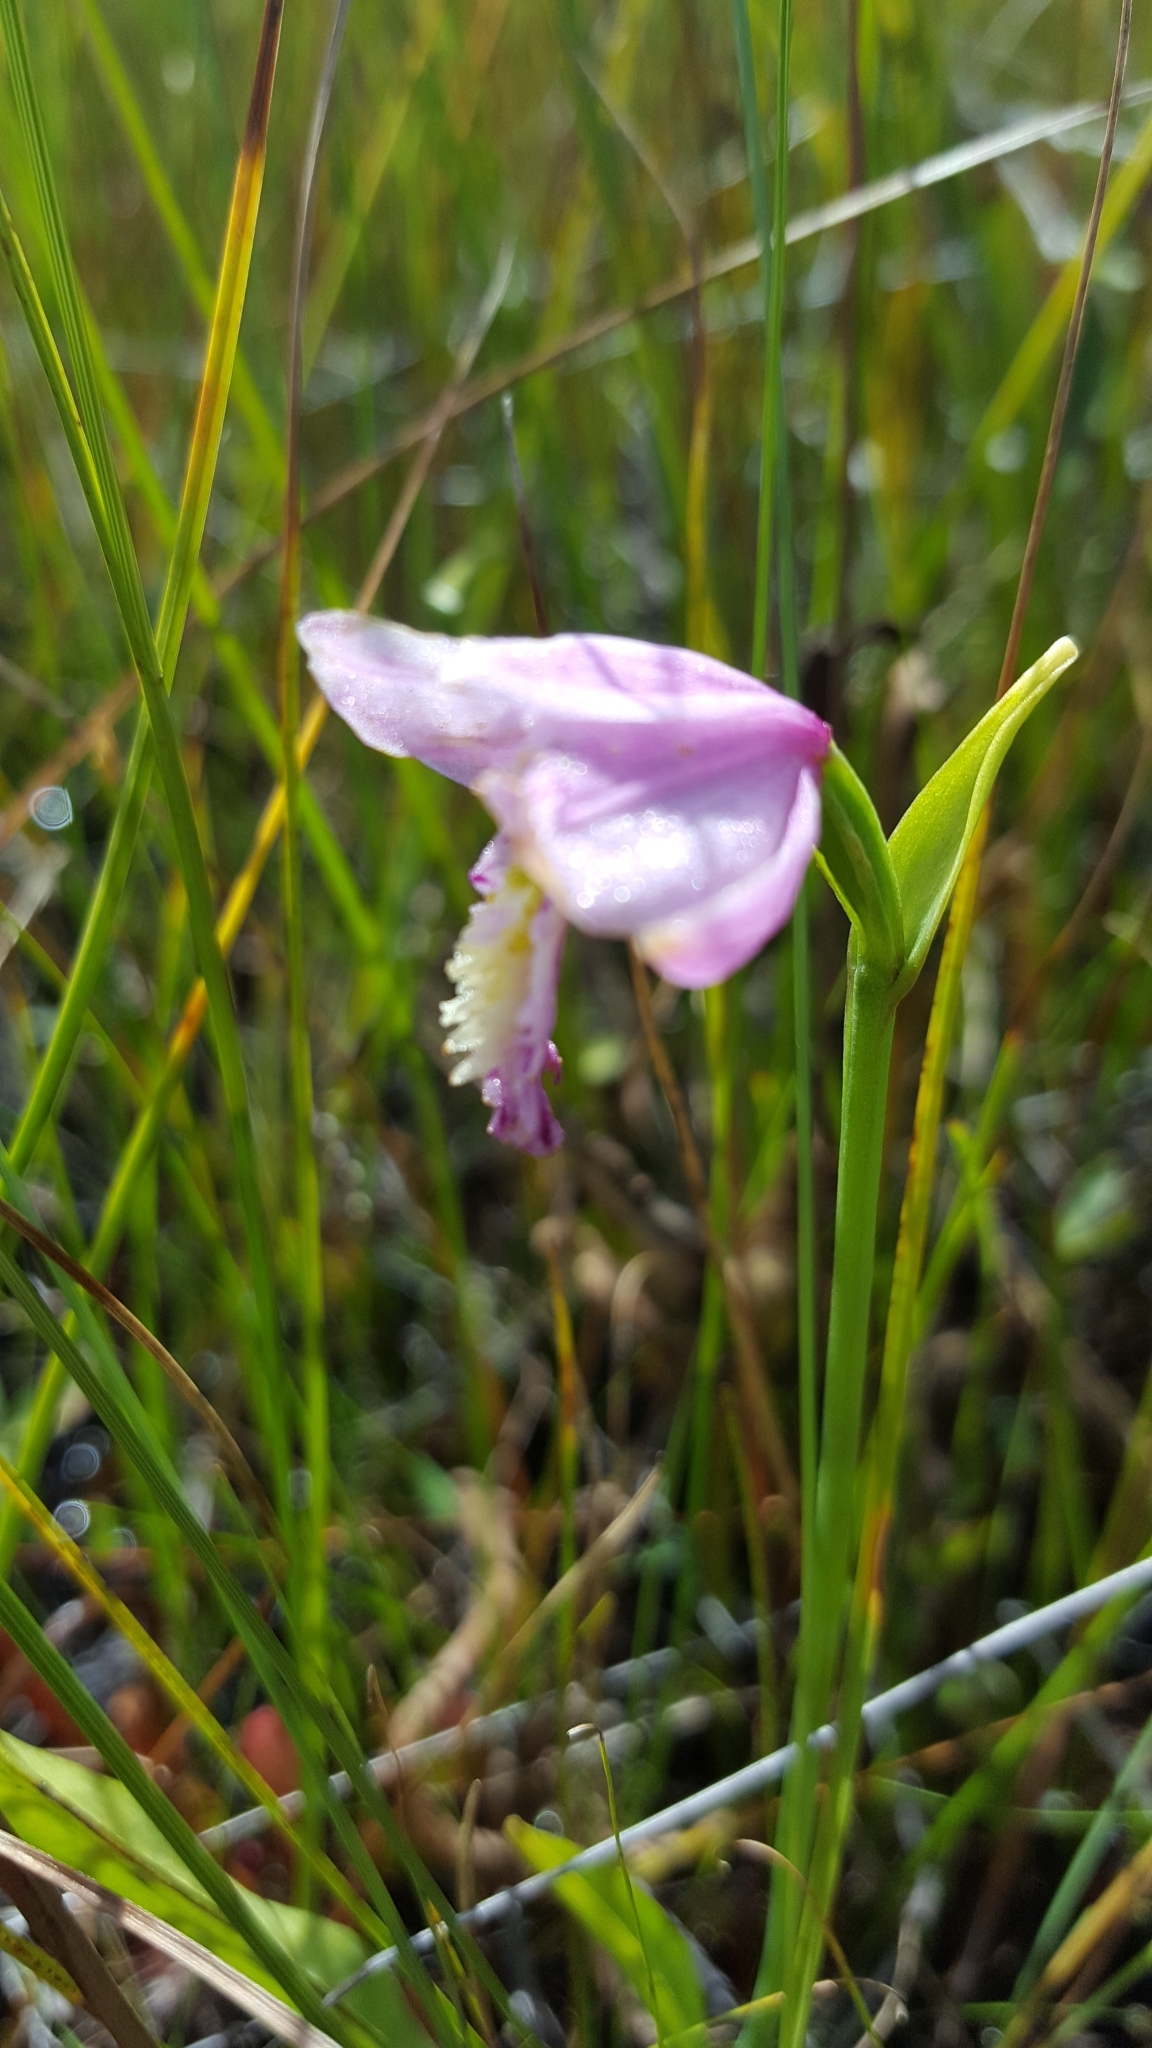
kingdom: Plantae
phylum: Tracheophyta
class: Liliopsida
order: Asparagales
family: Orchidaceae
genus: Pogonia
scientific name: Pogonia ophioglossoides
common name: Rose pogonia
